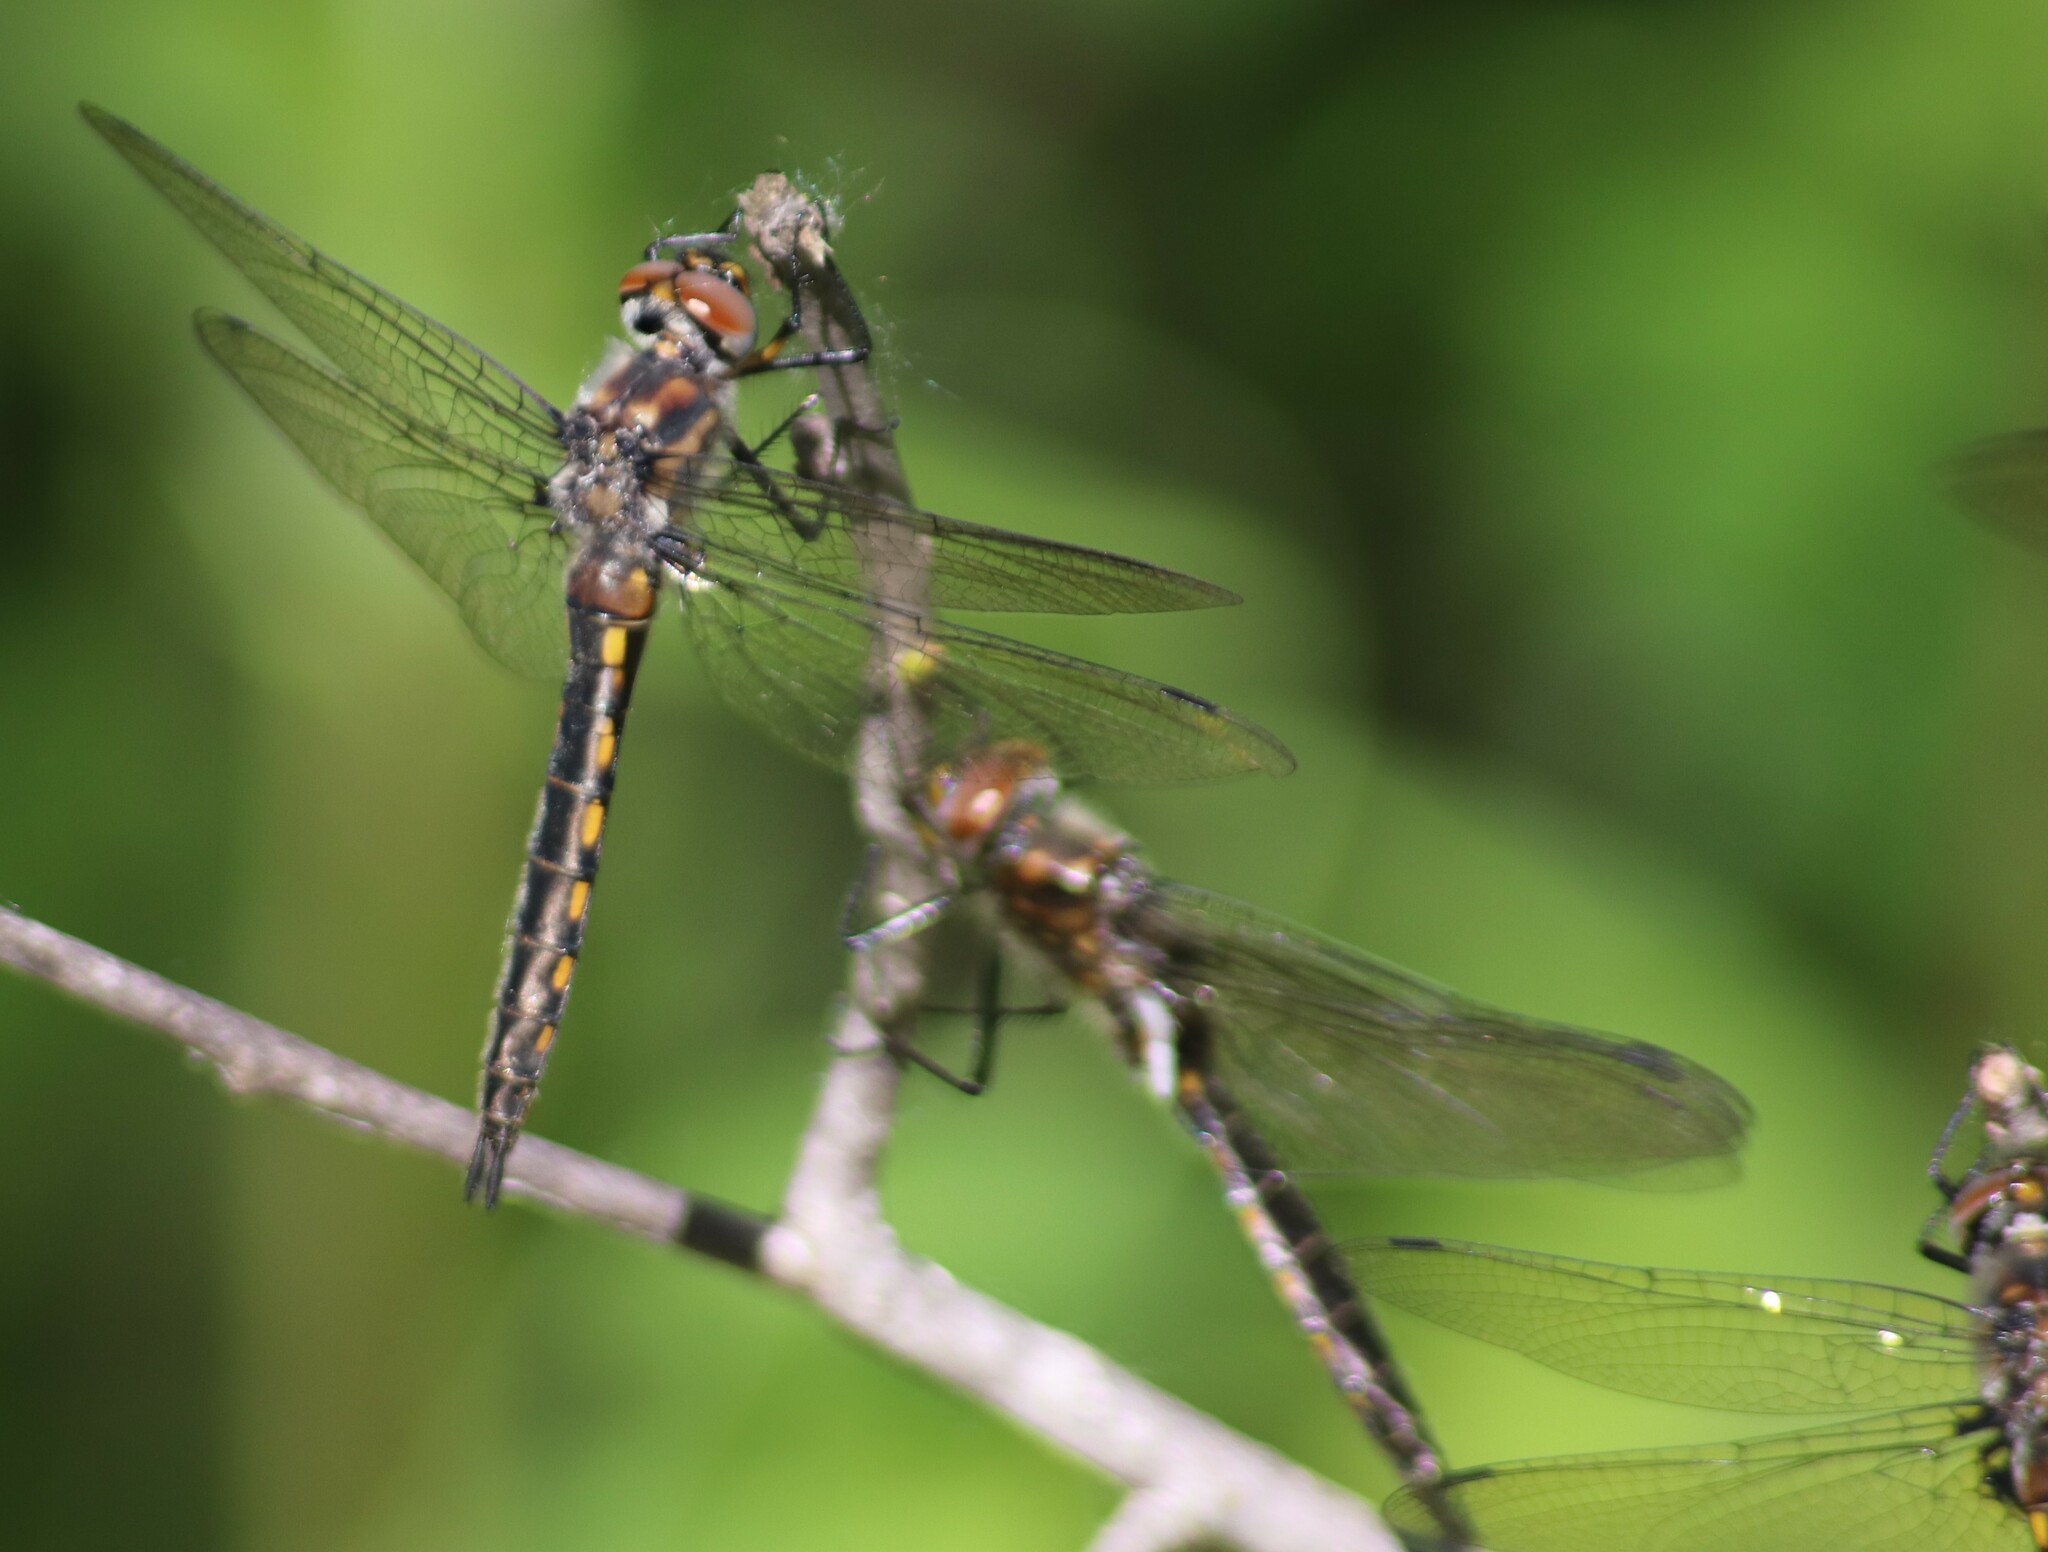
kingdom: Animalia
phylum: Arthropoda
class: Insecta
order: Odonata
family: Corduliidae
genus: Epitheca
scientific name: Epitheca spinigera
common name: Spiny baskettail
